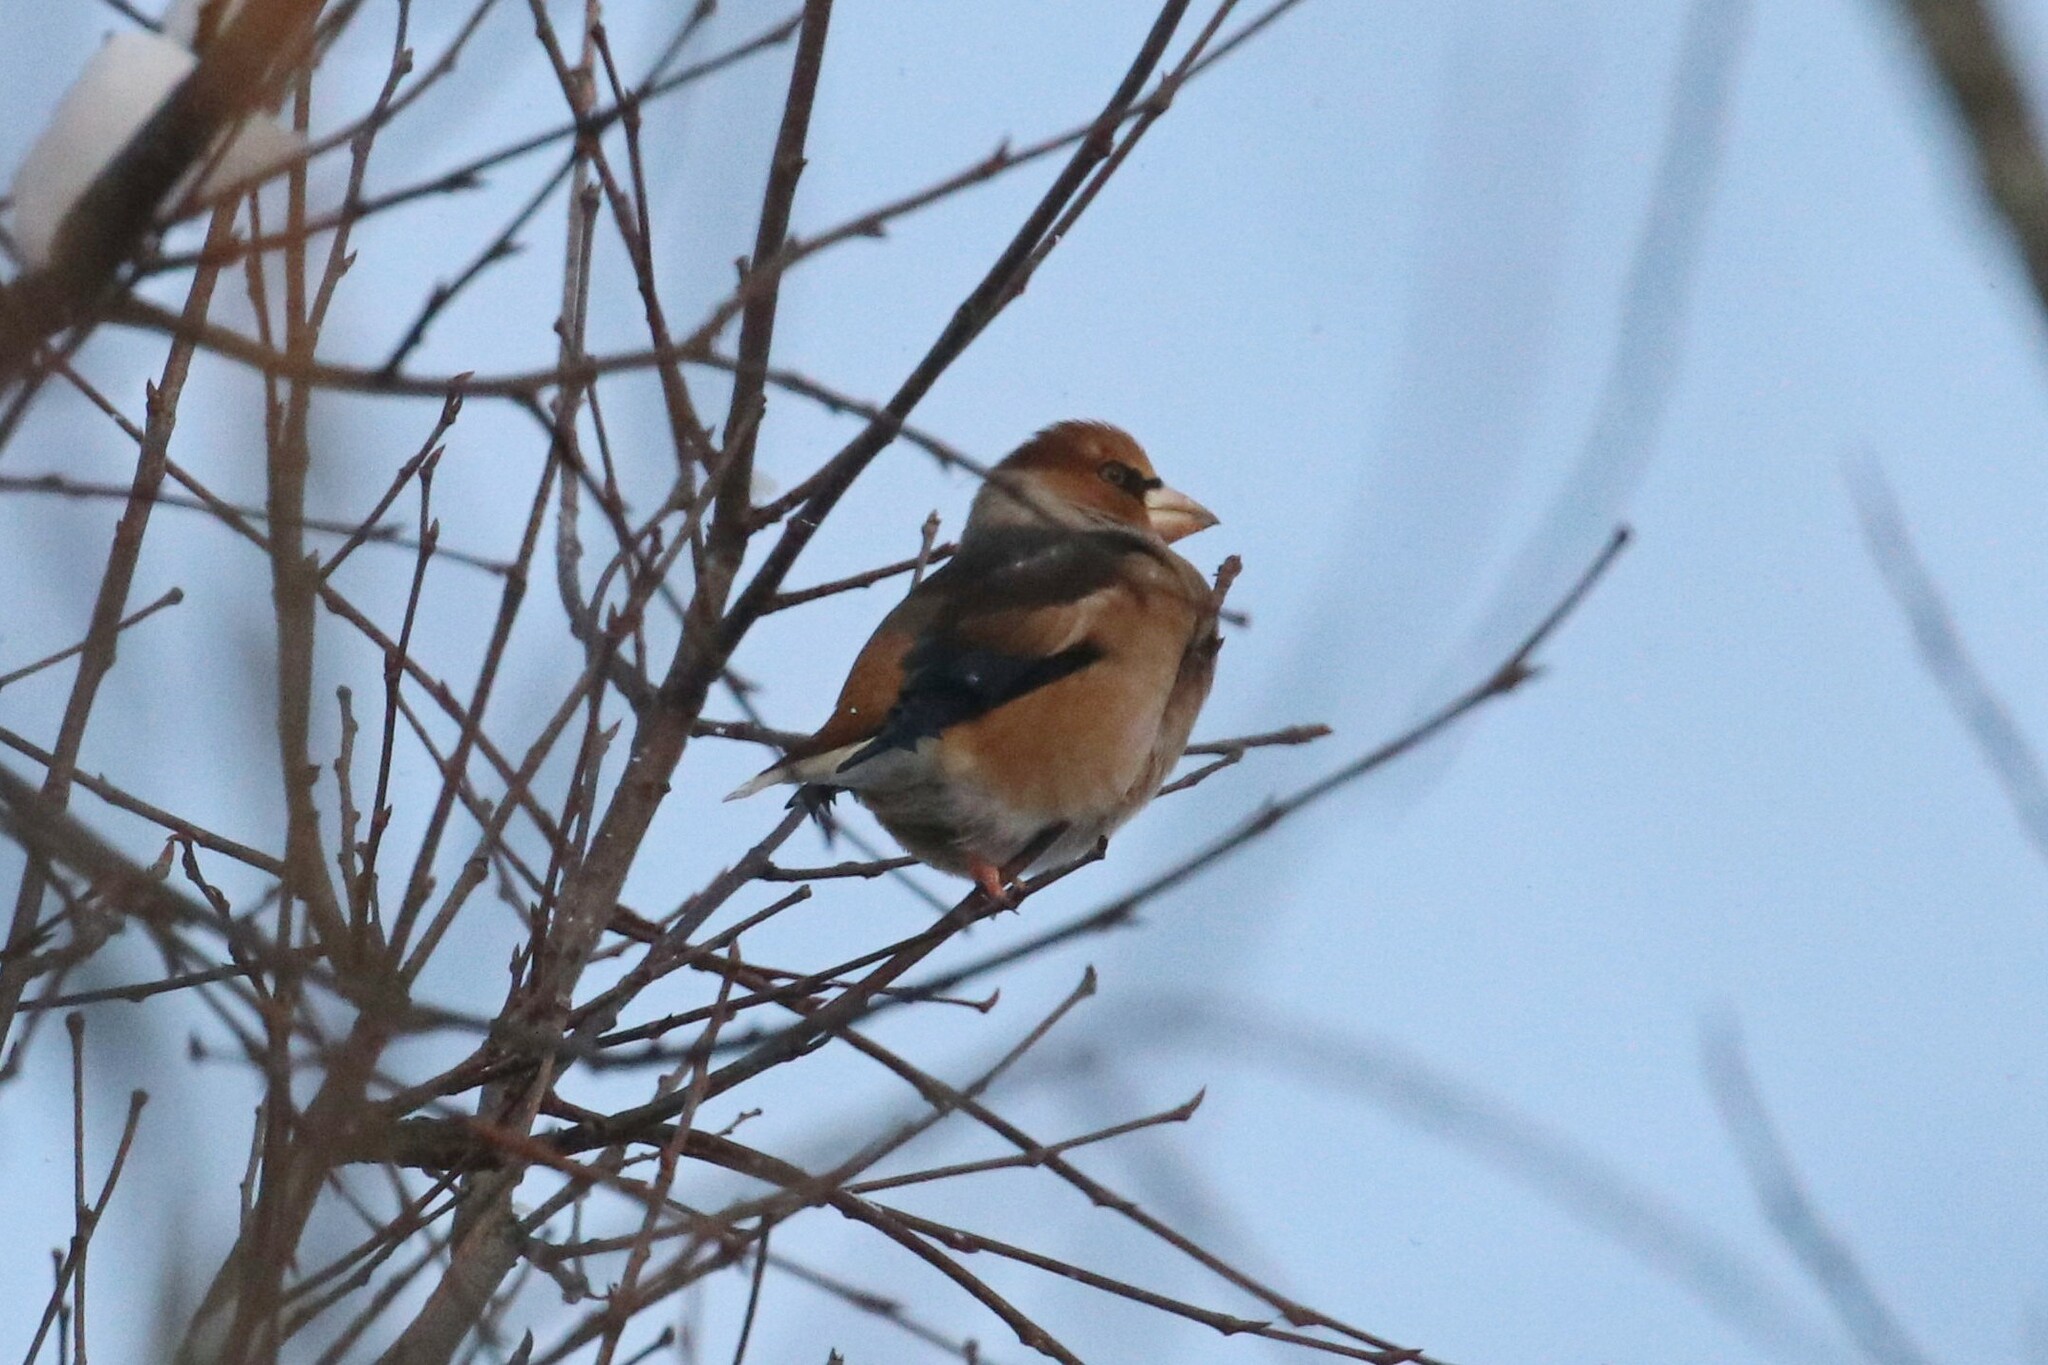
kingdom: Animalia
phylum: Chordata
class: Aves
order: Passeriformes
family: Fringillidae
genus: Coccothraustes
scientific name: Coccothraustes coccothraustes
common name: Hawfinch
